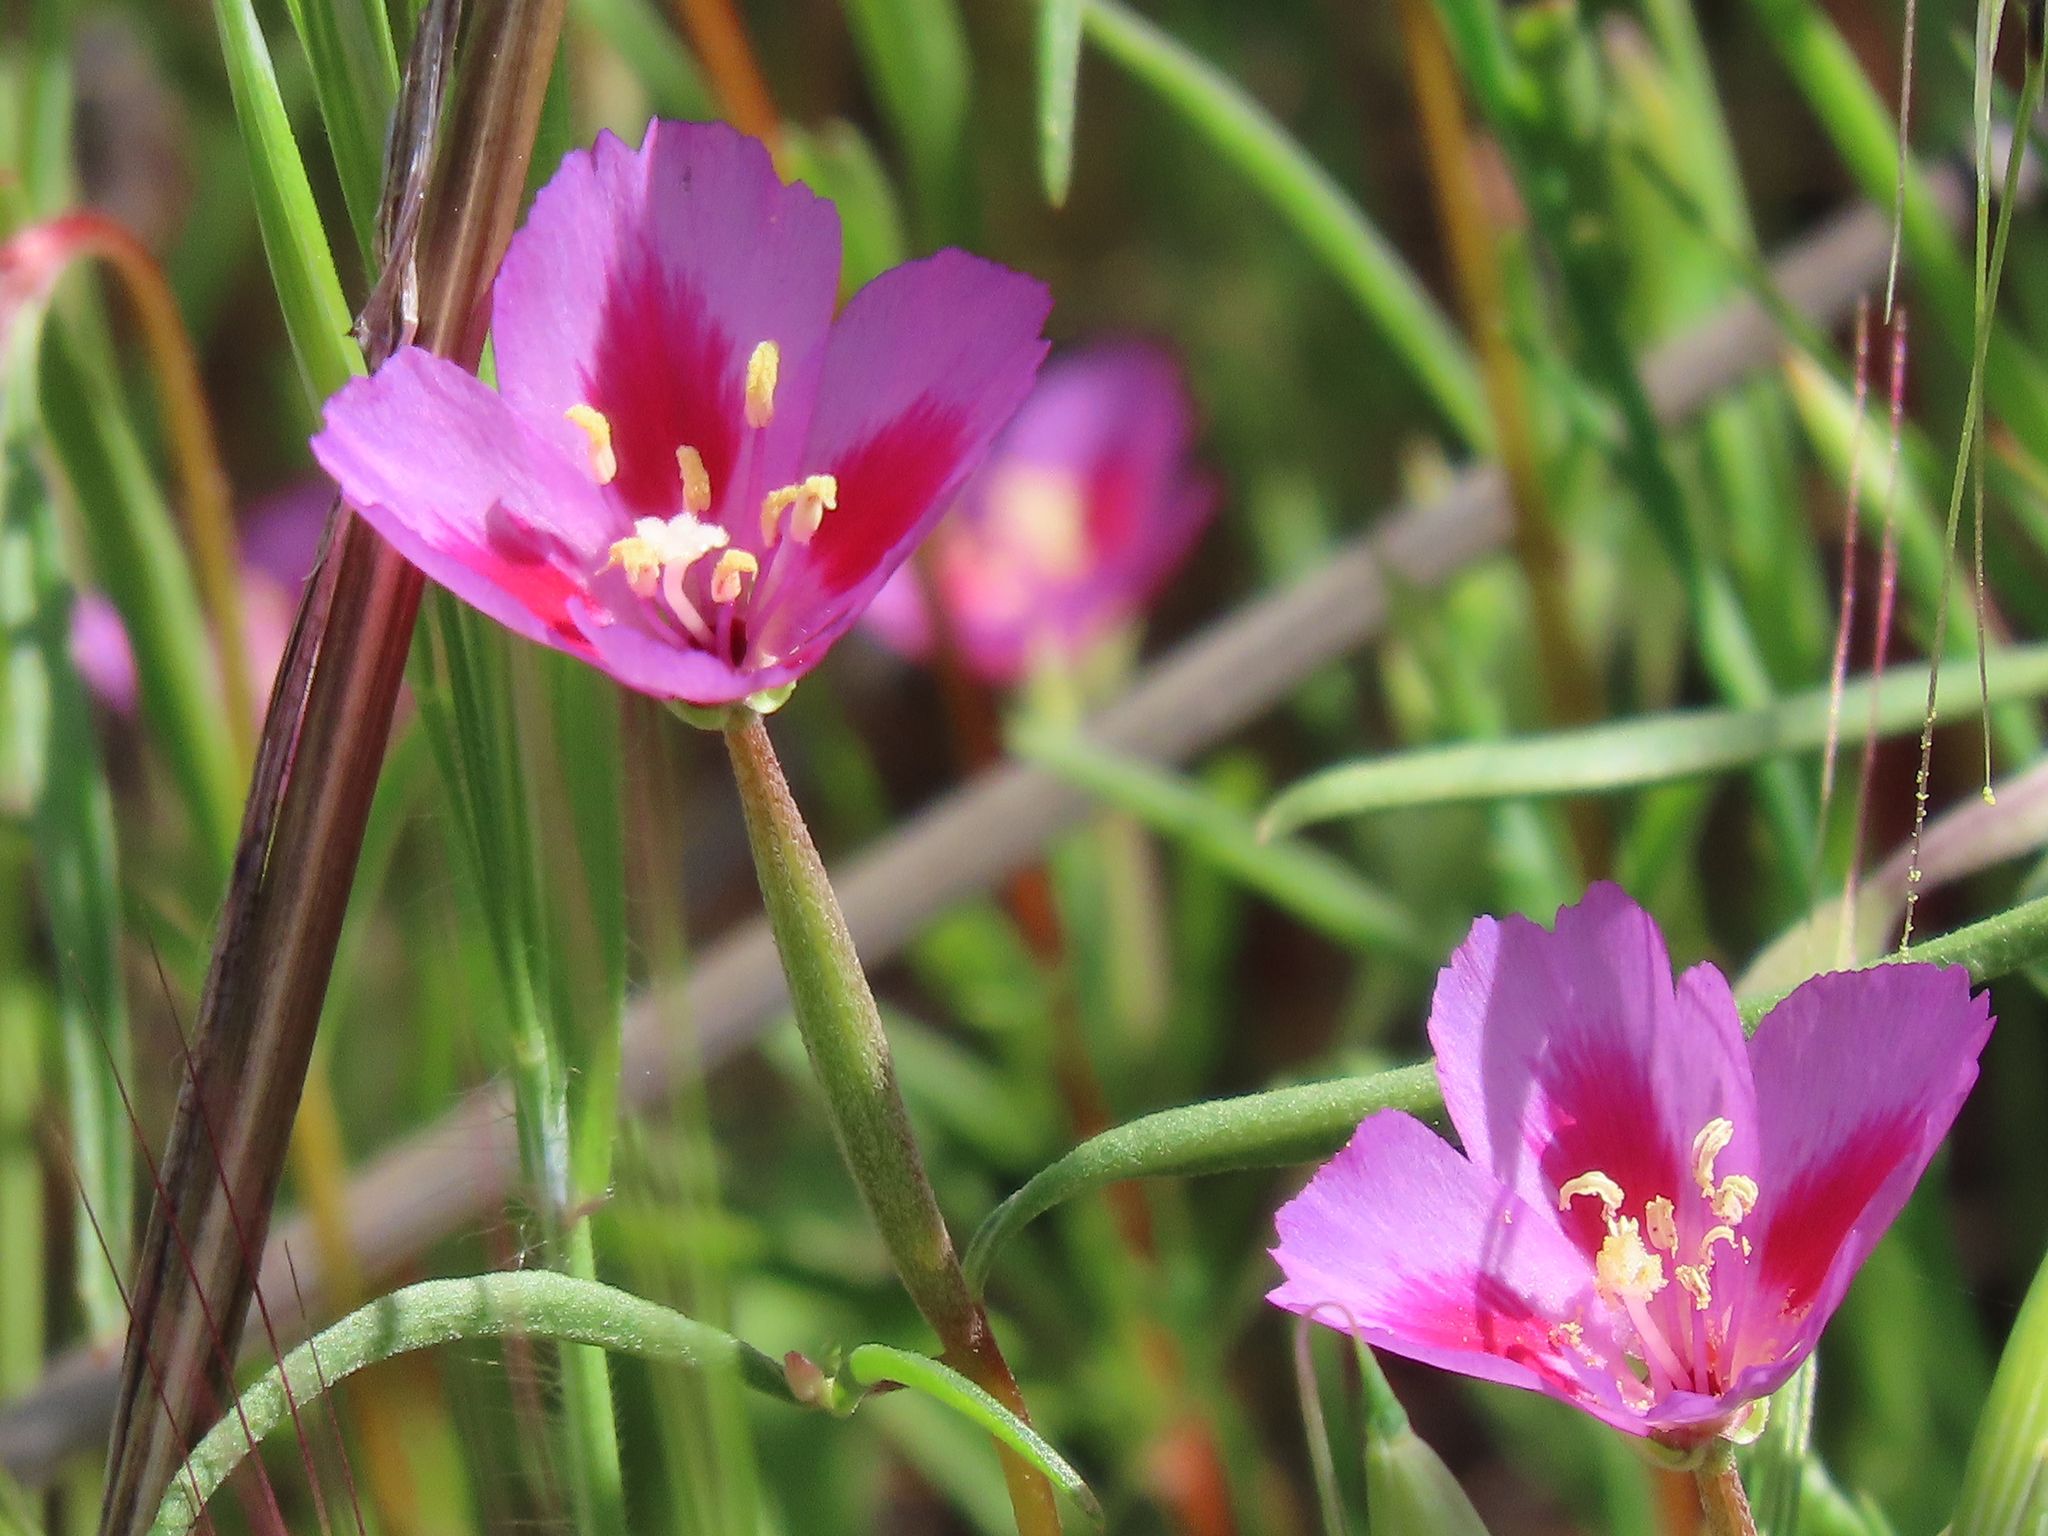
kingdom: Plantae
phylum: Tracheophyta
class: Magnoliopsida
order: Myrtales
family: Onagraceae
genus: Clarkia
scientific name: Clarkia purpurea
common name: Purple clarkia
